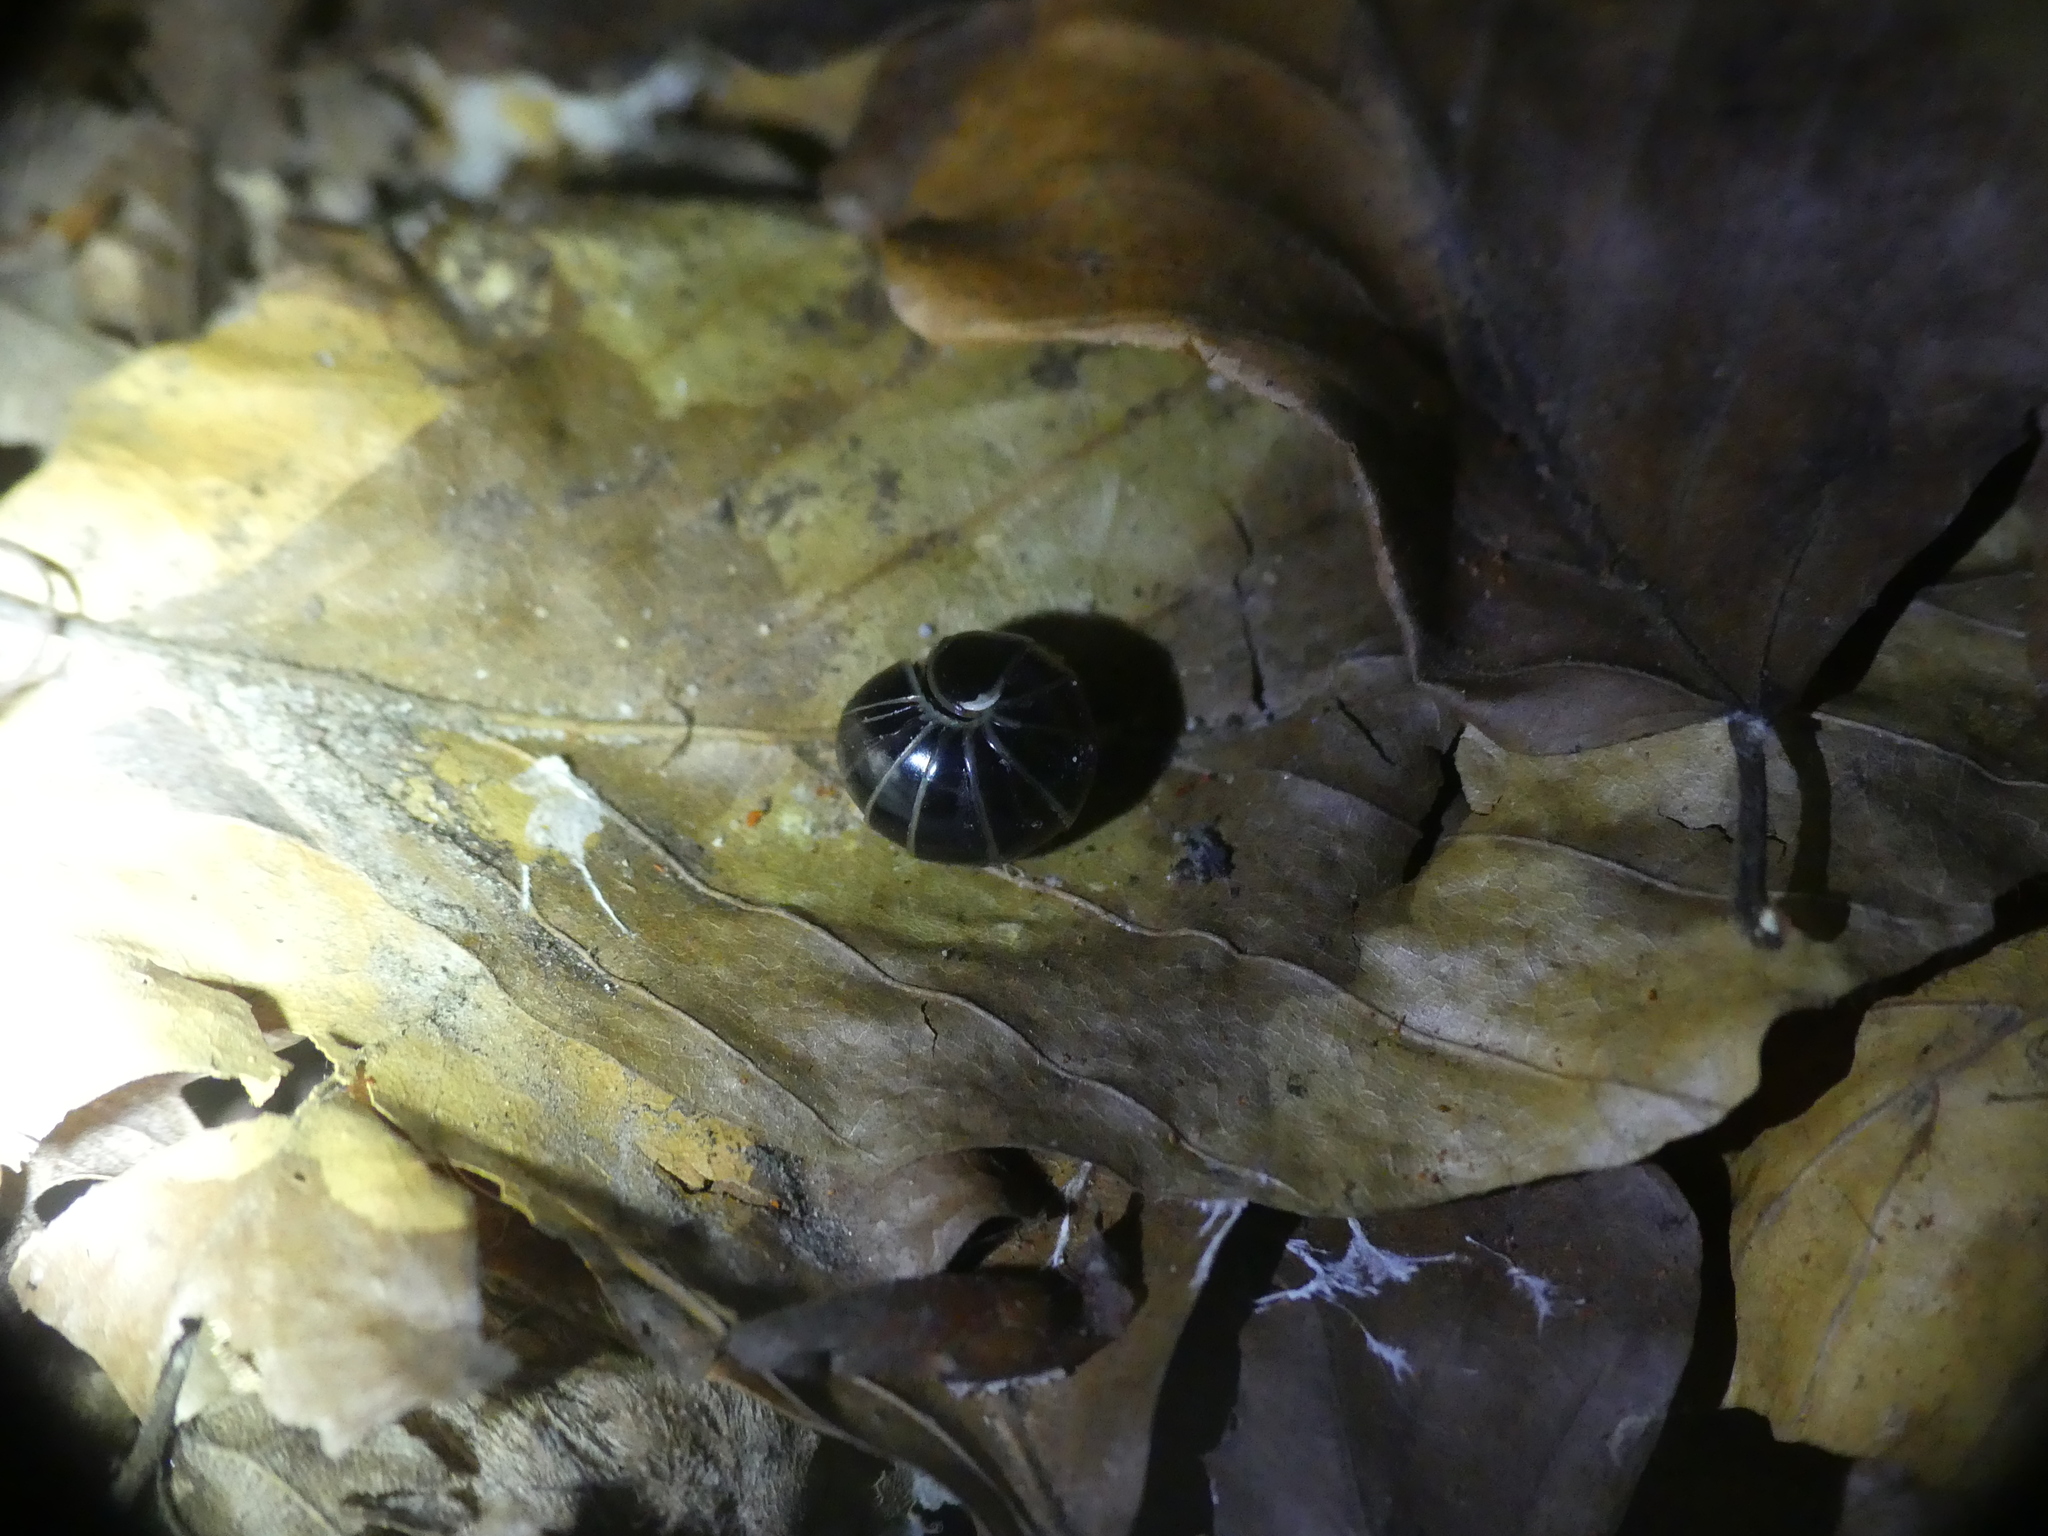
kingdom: Animalia
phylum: Arthropoda
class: Diplopoda
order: Glomerida
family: Glomeridae
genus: Glomeris
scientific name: Glomeris marginata
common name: Bordered pill millipede
